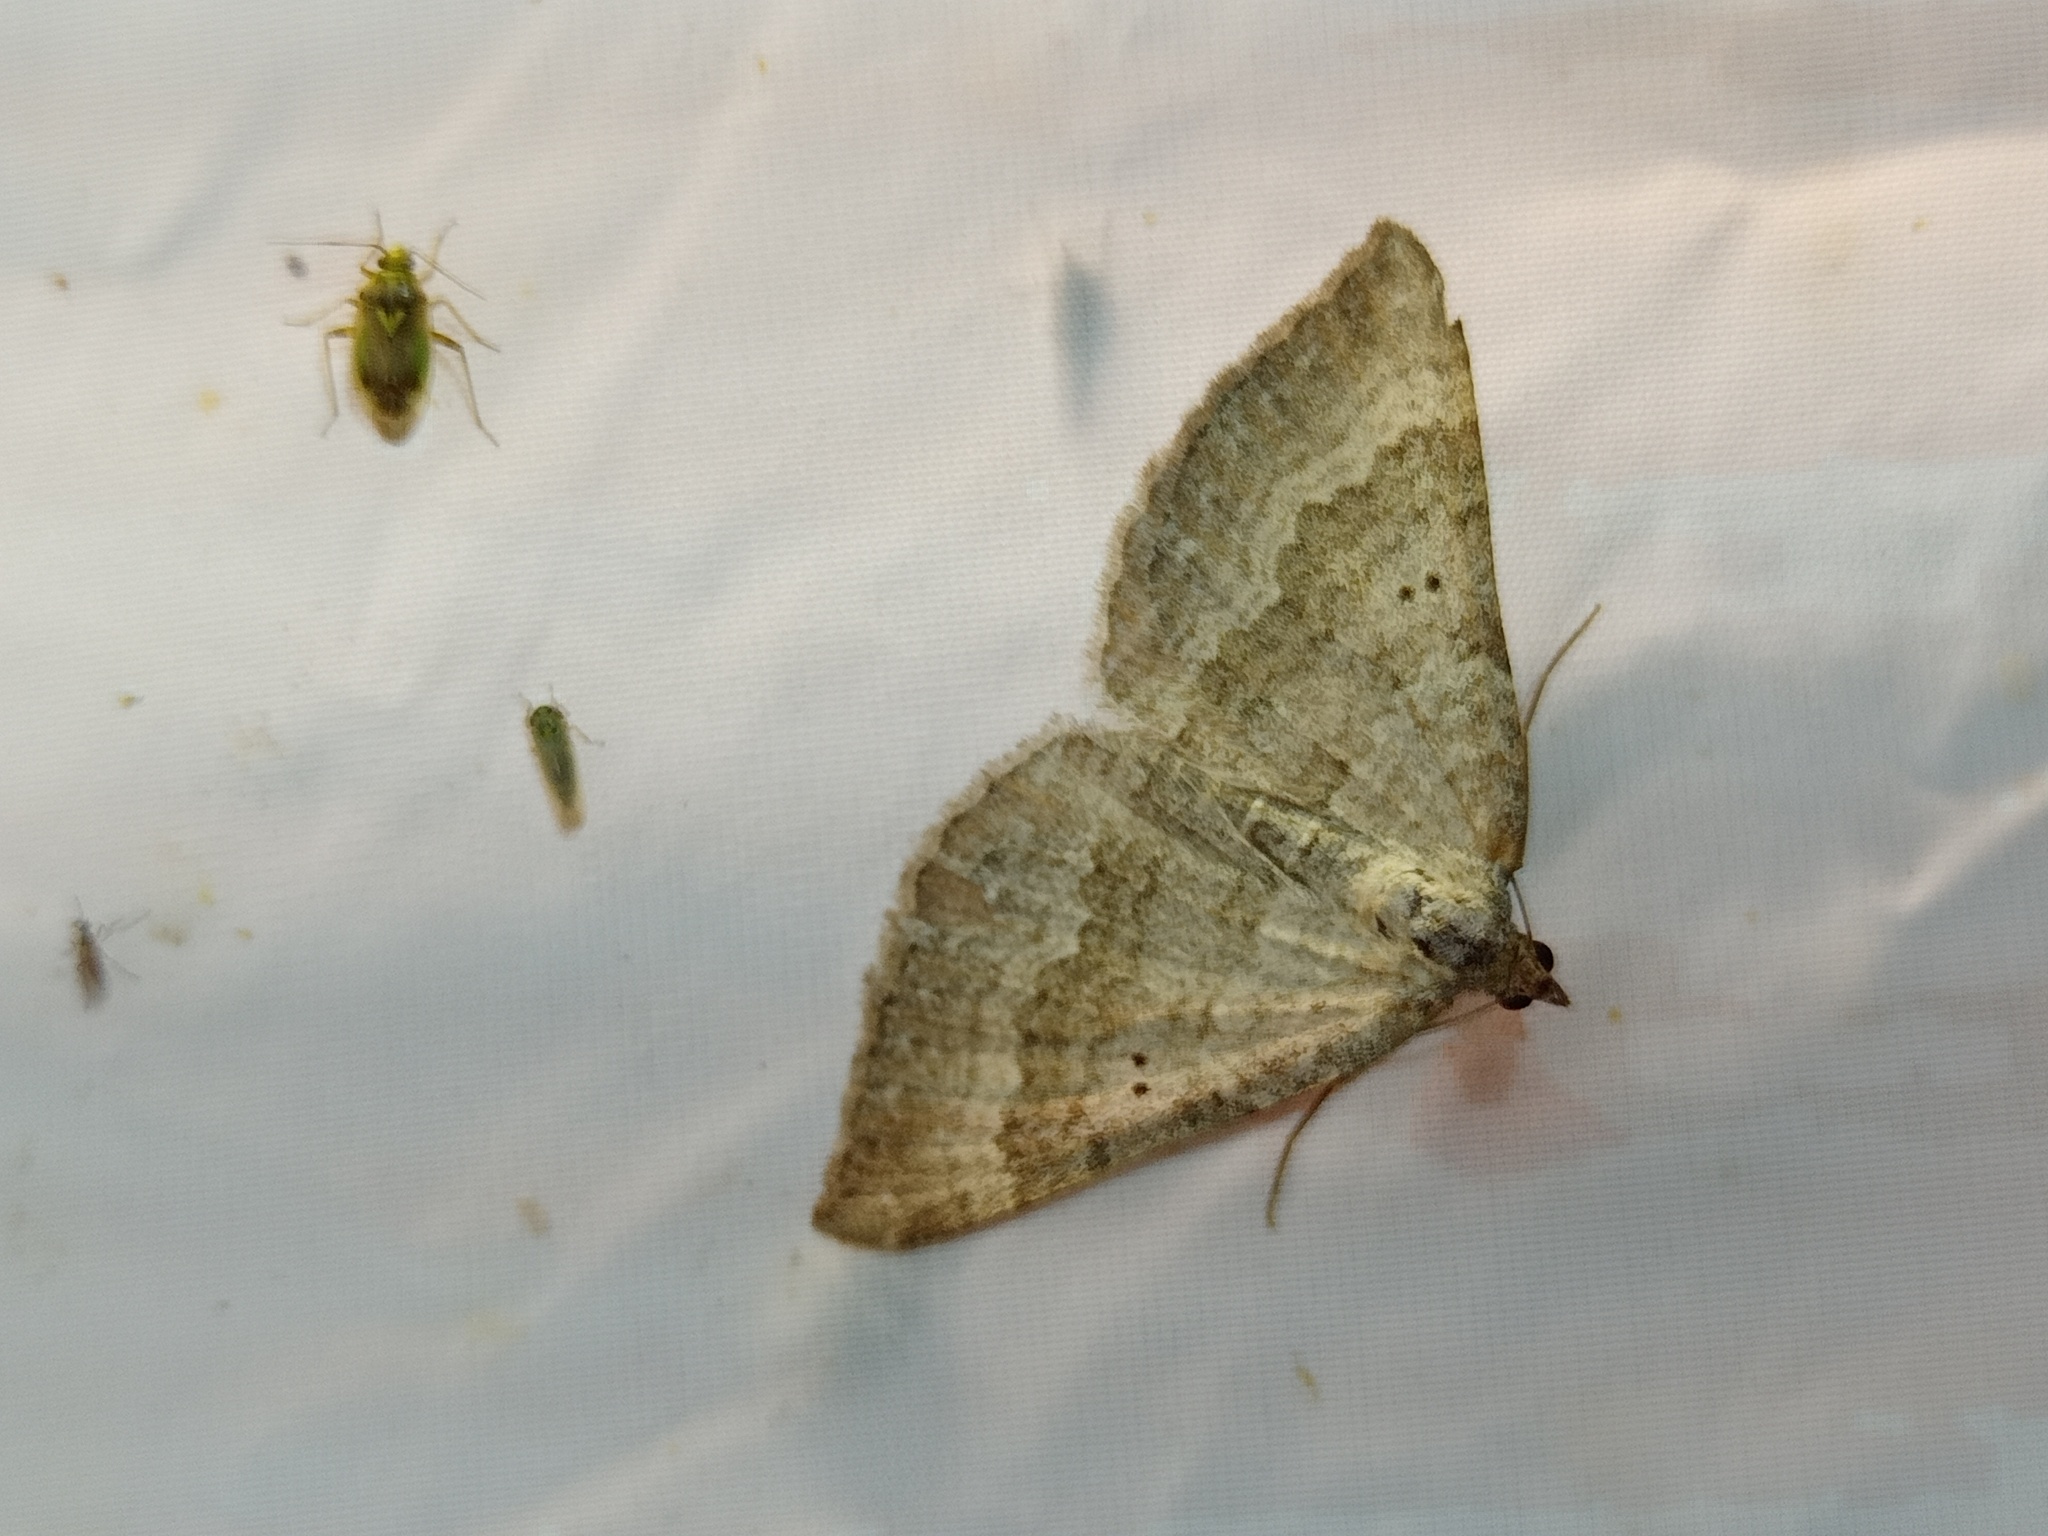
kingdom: Animalia
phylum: Arthropoda
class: Insecta
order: Lepidoptera
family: Geometridae
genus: Scotopteryx
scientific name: Scotopteryx bipunctaria
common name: Chalk carpet
